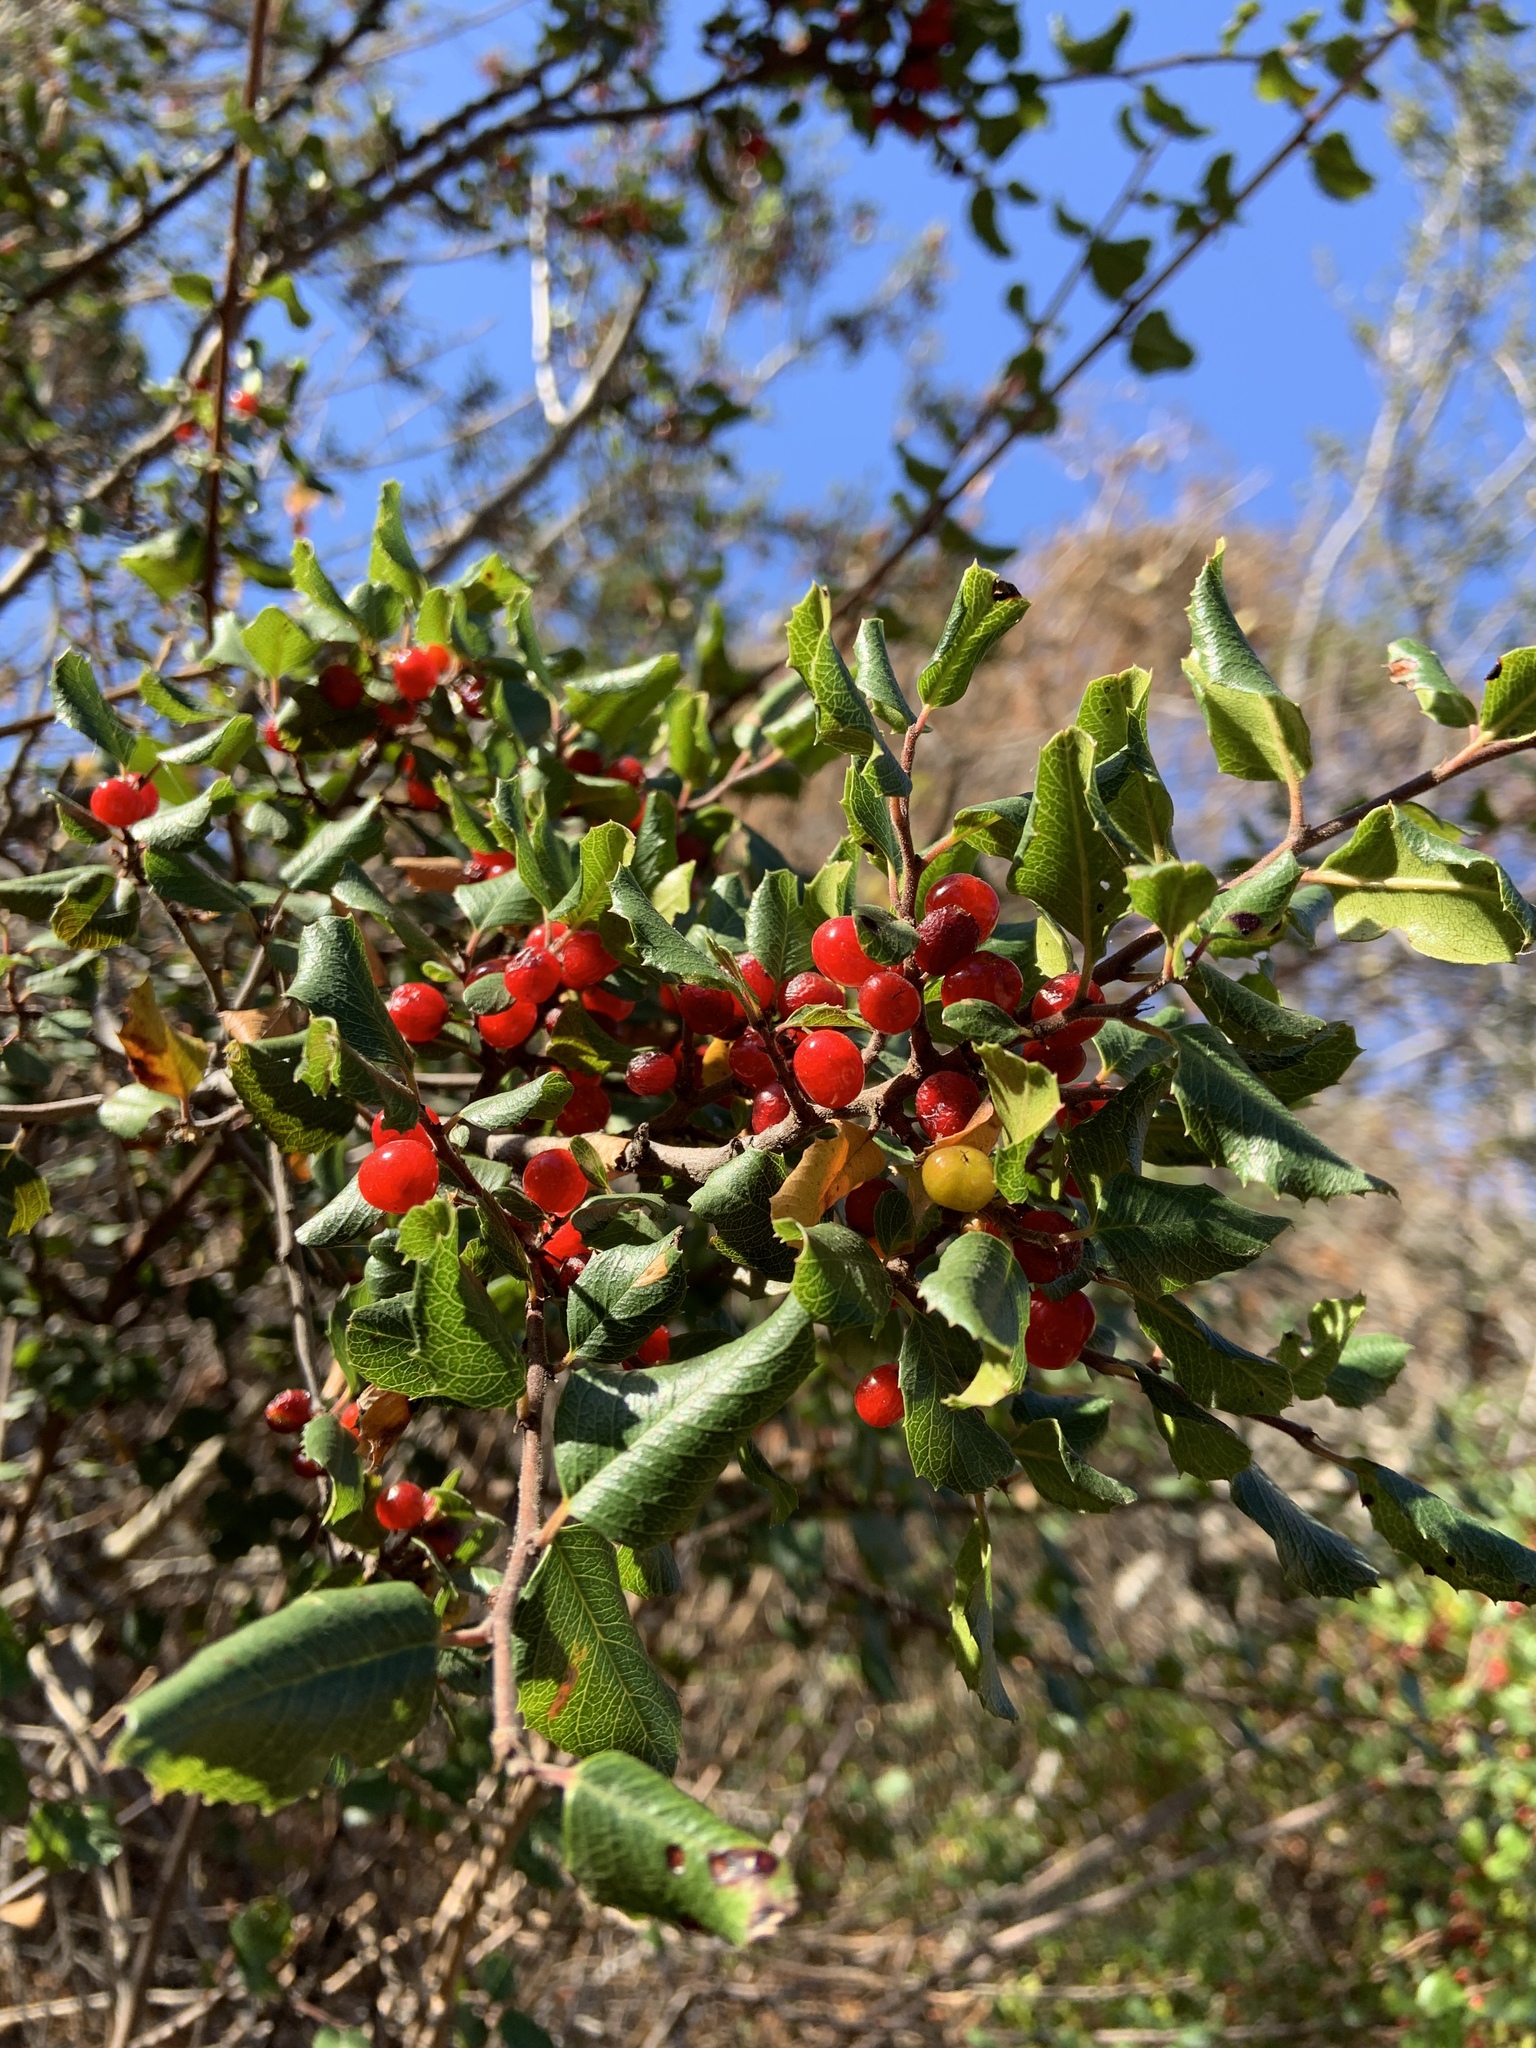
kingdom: Plantae
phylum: Tracheophyta
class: Magnoliopsida
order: Rosales
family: Rhamnaceae
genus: Endotropis
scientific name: Endotropis crocea
